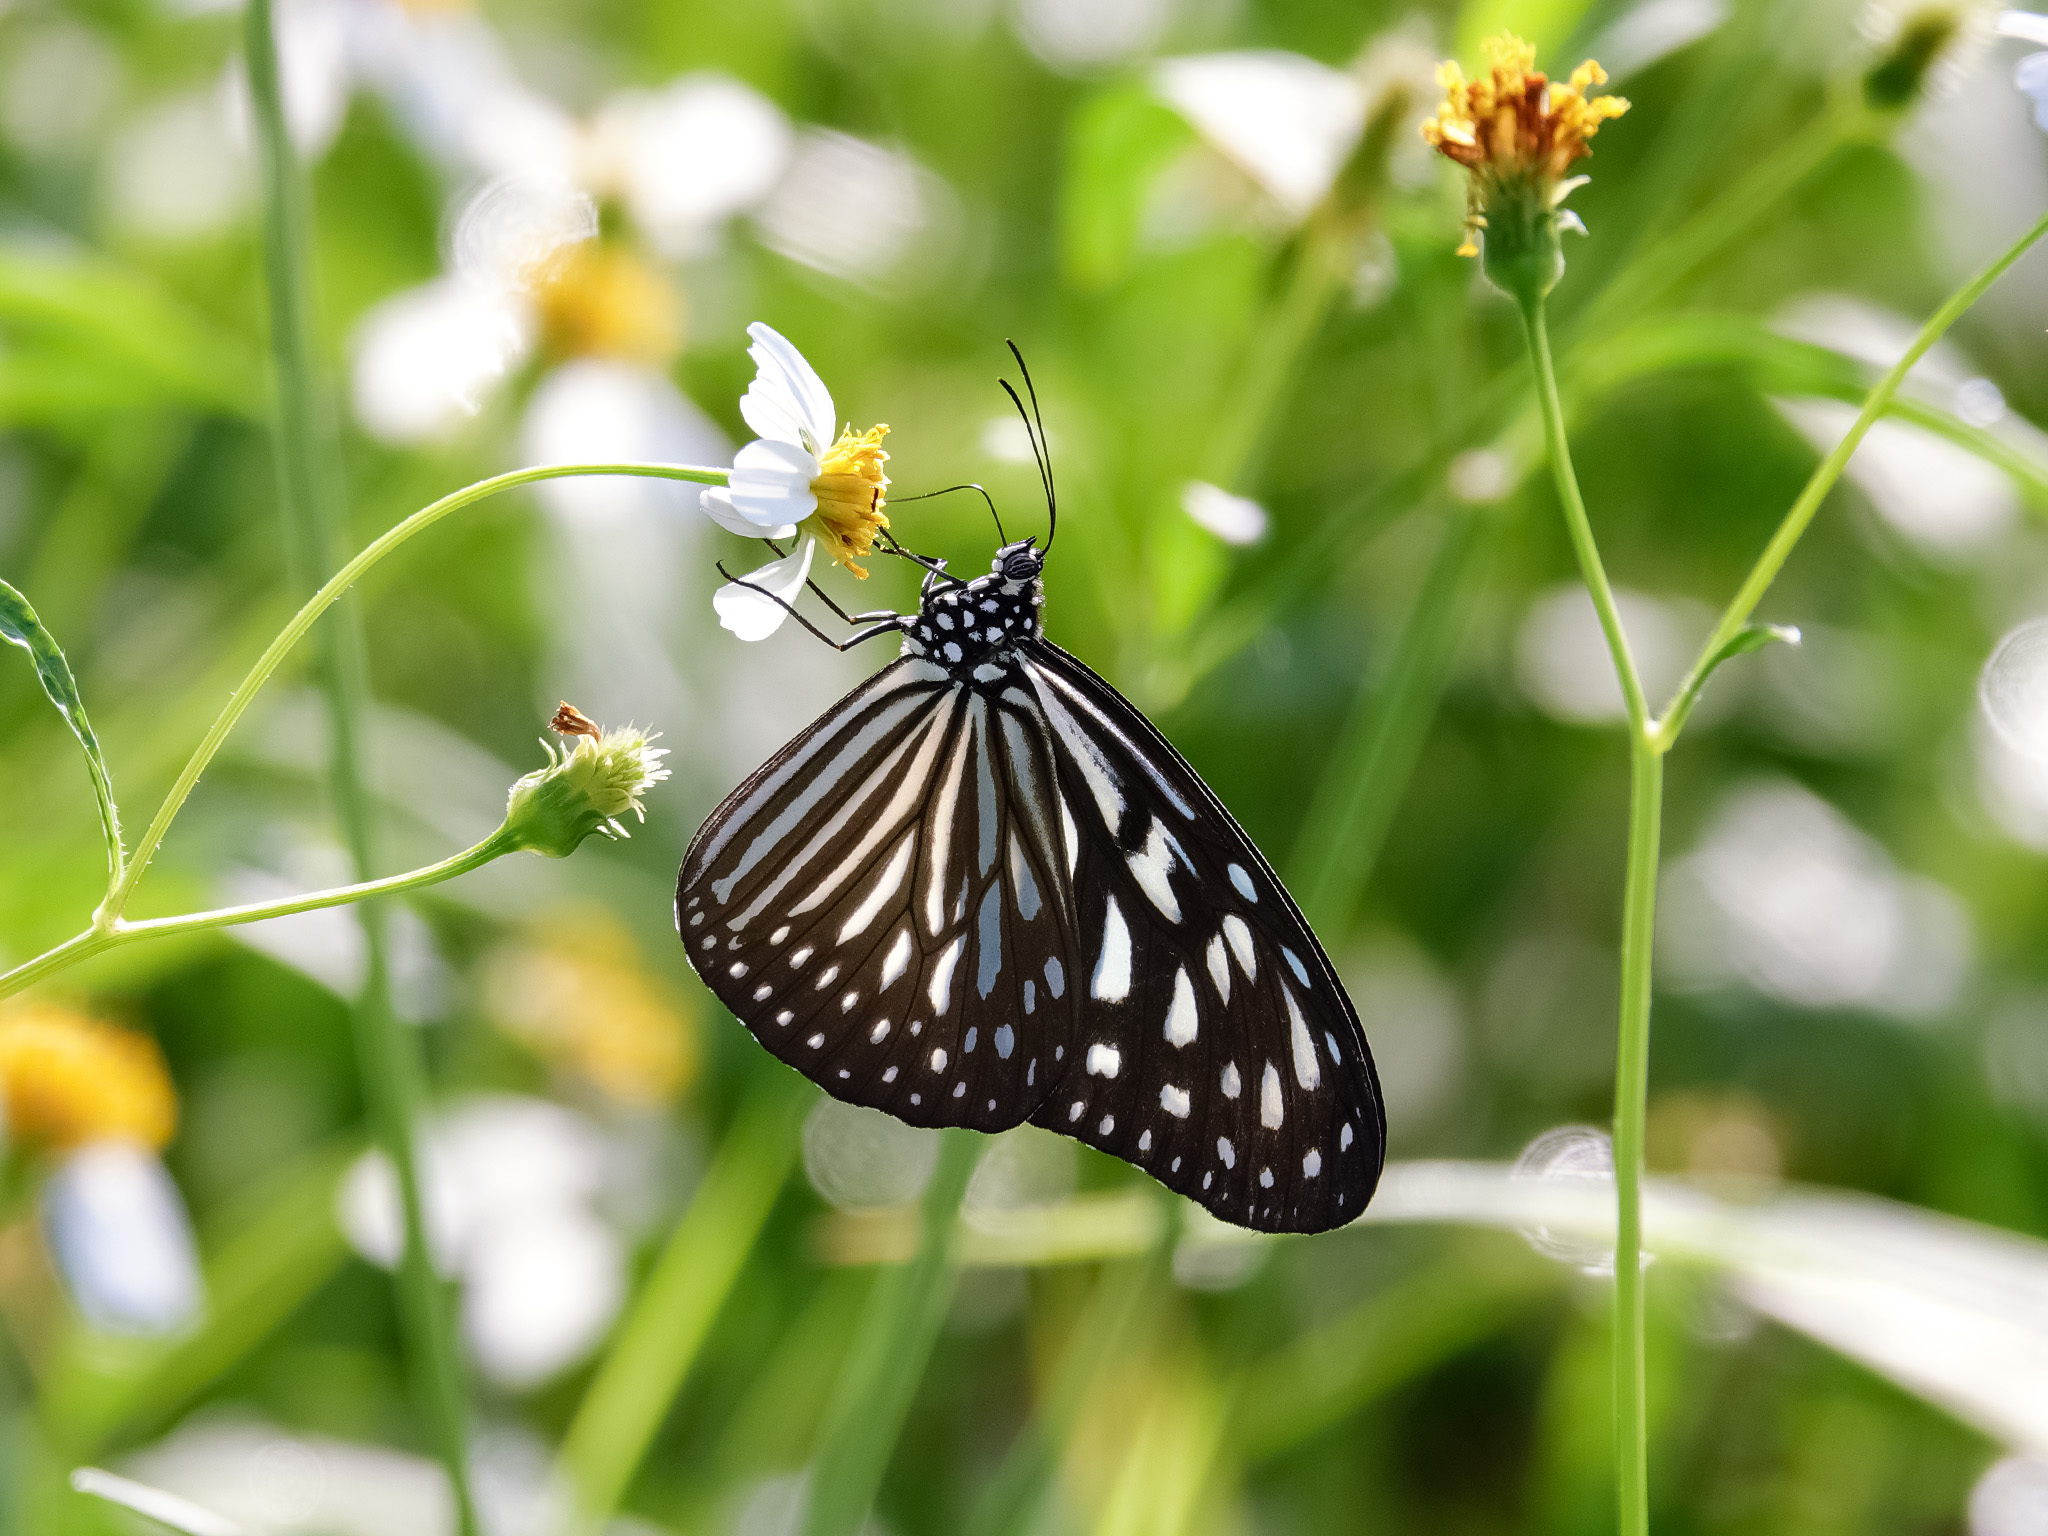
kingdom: Animalia
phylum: Arthropoda
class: Insecta
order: Lepidoptera
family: Nymphalidae
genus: Ideopsis
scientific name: Ideopsis vulgaris
